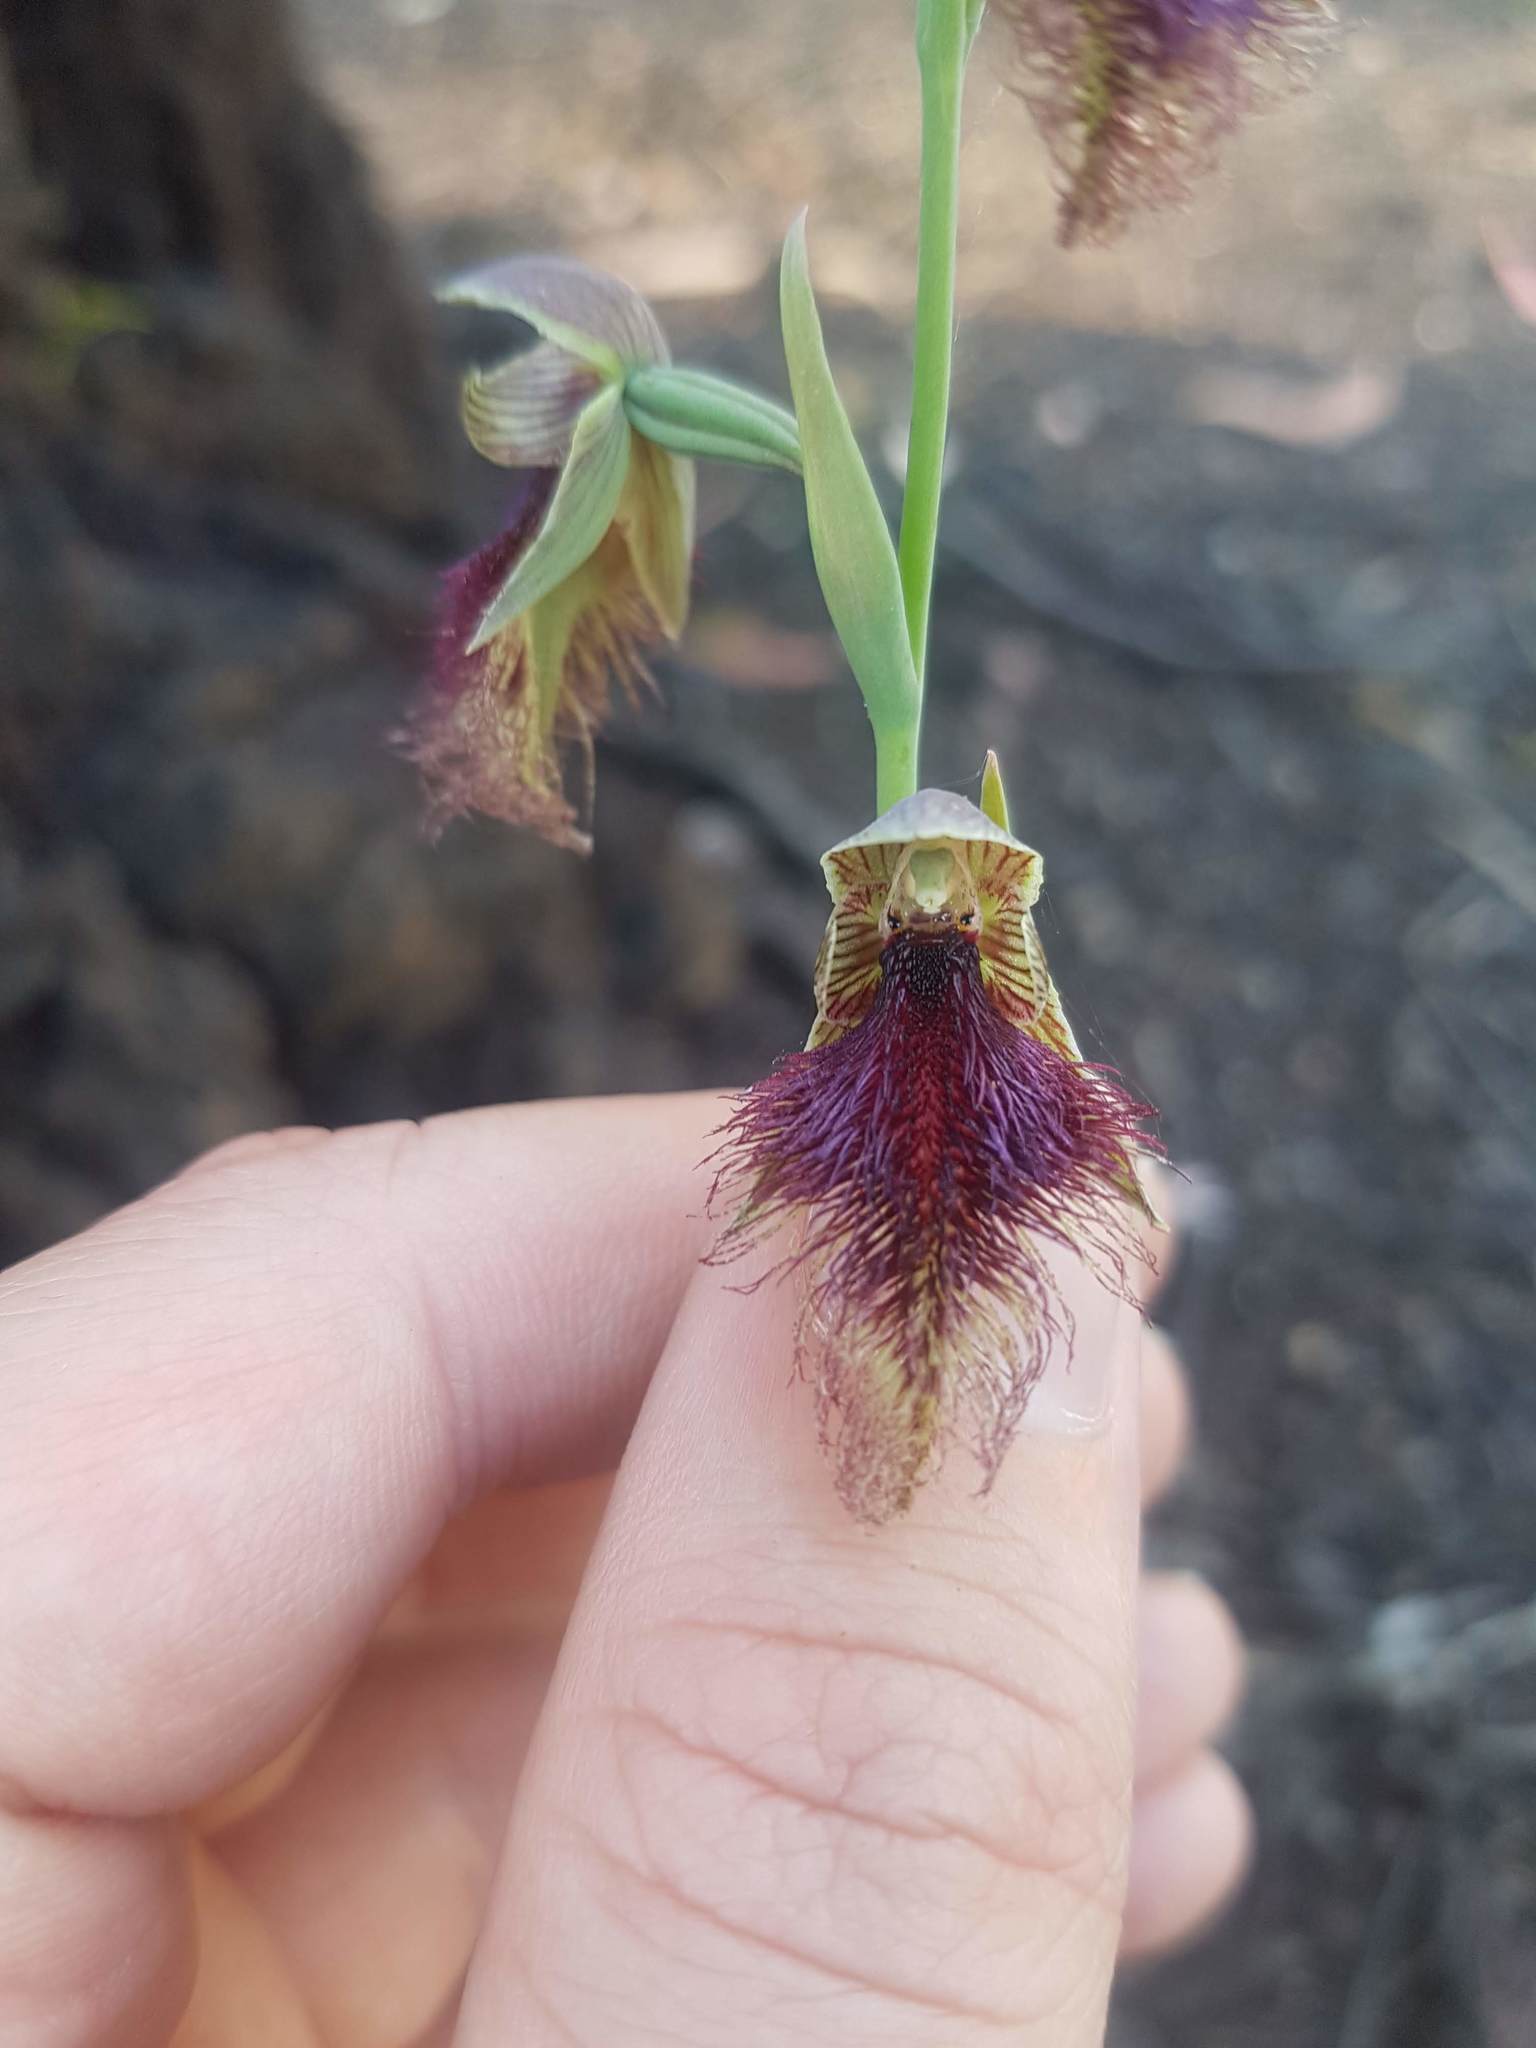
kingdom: Plantae
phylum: Tracheophyta
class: Liliopsida
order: Asparagales
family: Orchidaceae
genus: Calochilus
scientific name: Calochilus robertsonii
